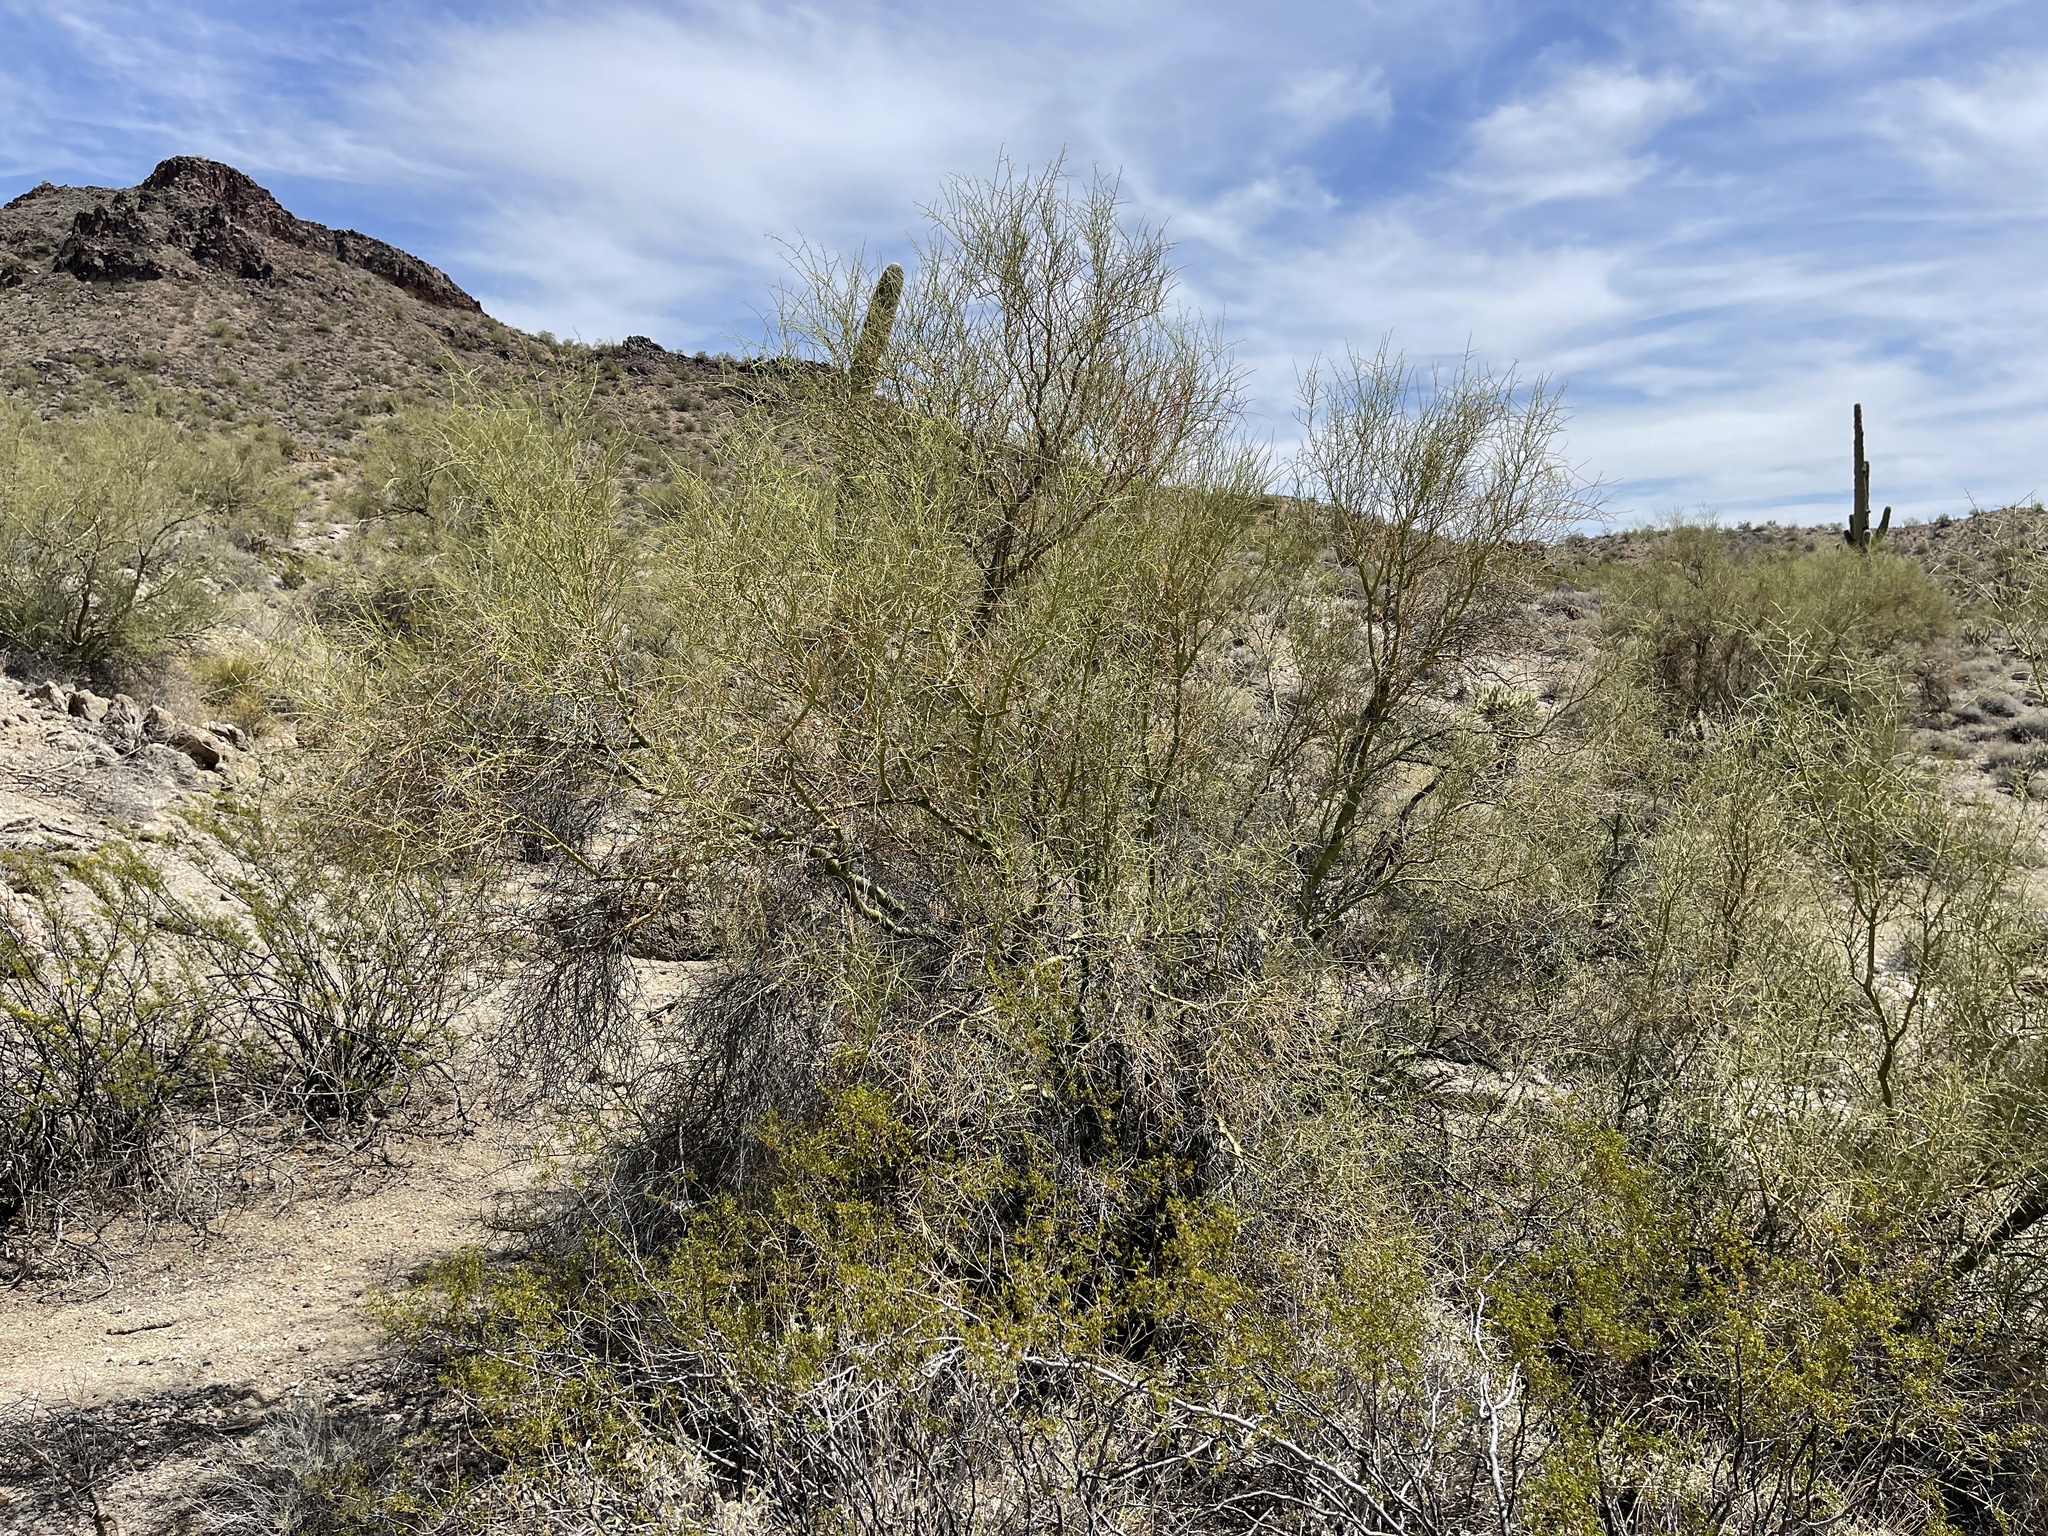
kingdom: Plantae
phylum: Tracheophyta
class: Magnoliopsida
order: Fabales
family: Fabaceae
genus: Parkinsonia
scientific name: Parkinsonia microphylla
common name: Yellow paloverde
